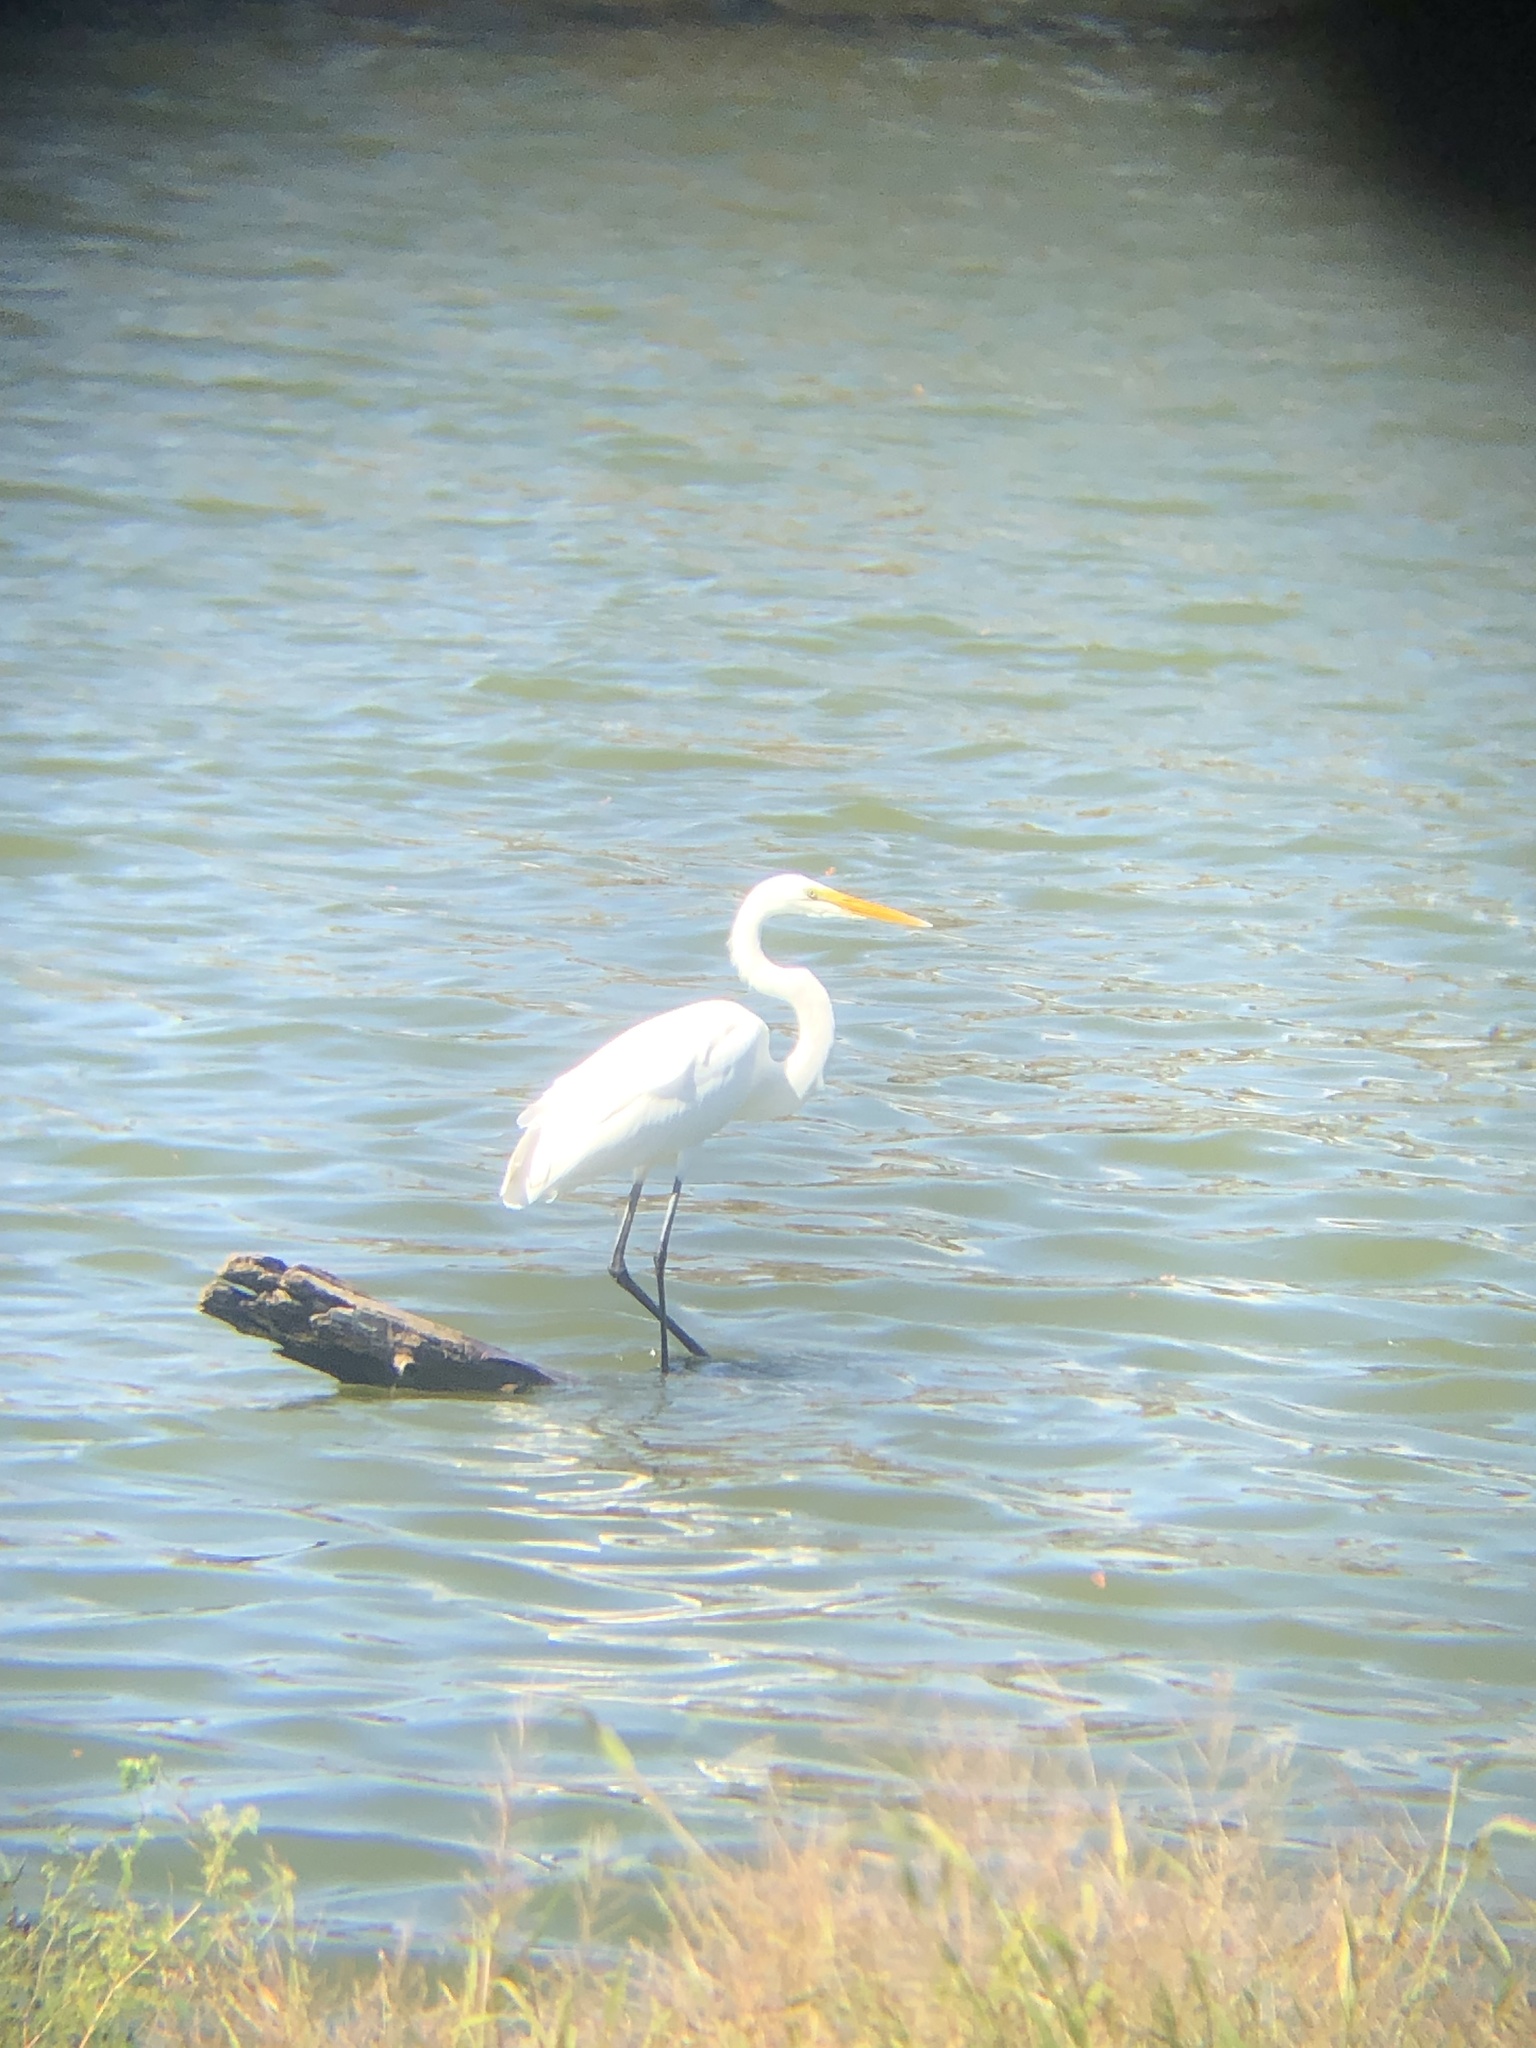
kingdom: Animalia
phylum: Chordata
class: Aves
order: Pelecaniformes
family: Ardeidae
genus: Ardea
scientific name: Ardea alba
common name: Great egret
